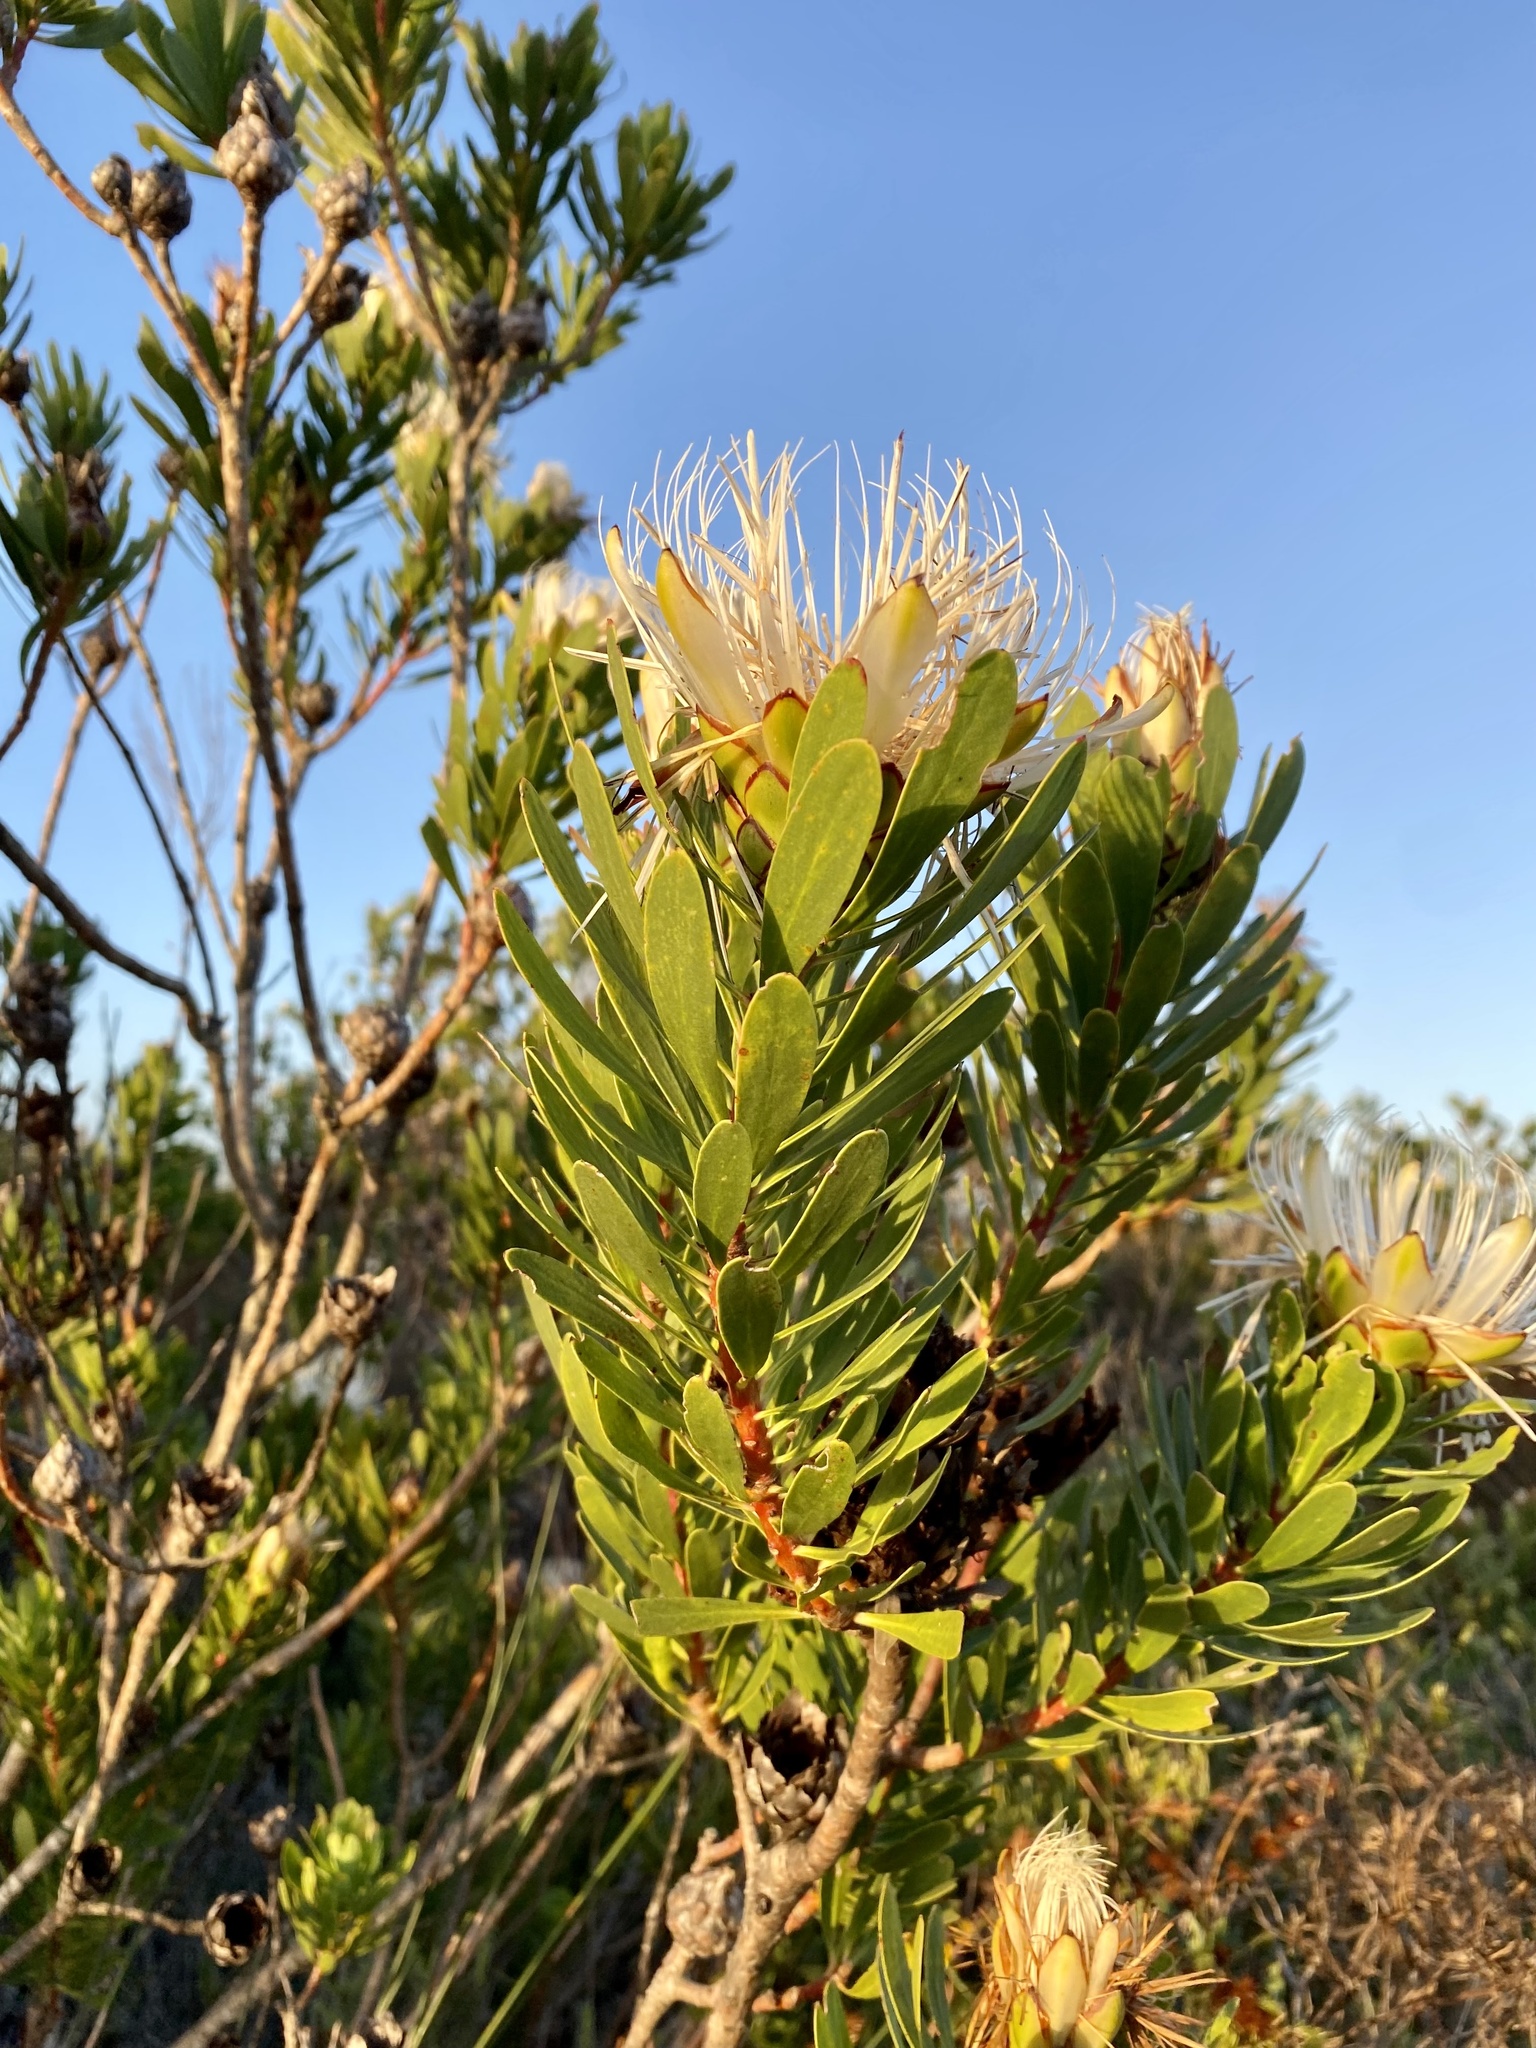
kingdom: Plantae
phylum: Tracheophyta
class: Magnoliopsida
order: Proteales
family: Proteaceae
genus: Protea
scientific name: Protea lanceolata
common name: Lance-leaved protea
